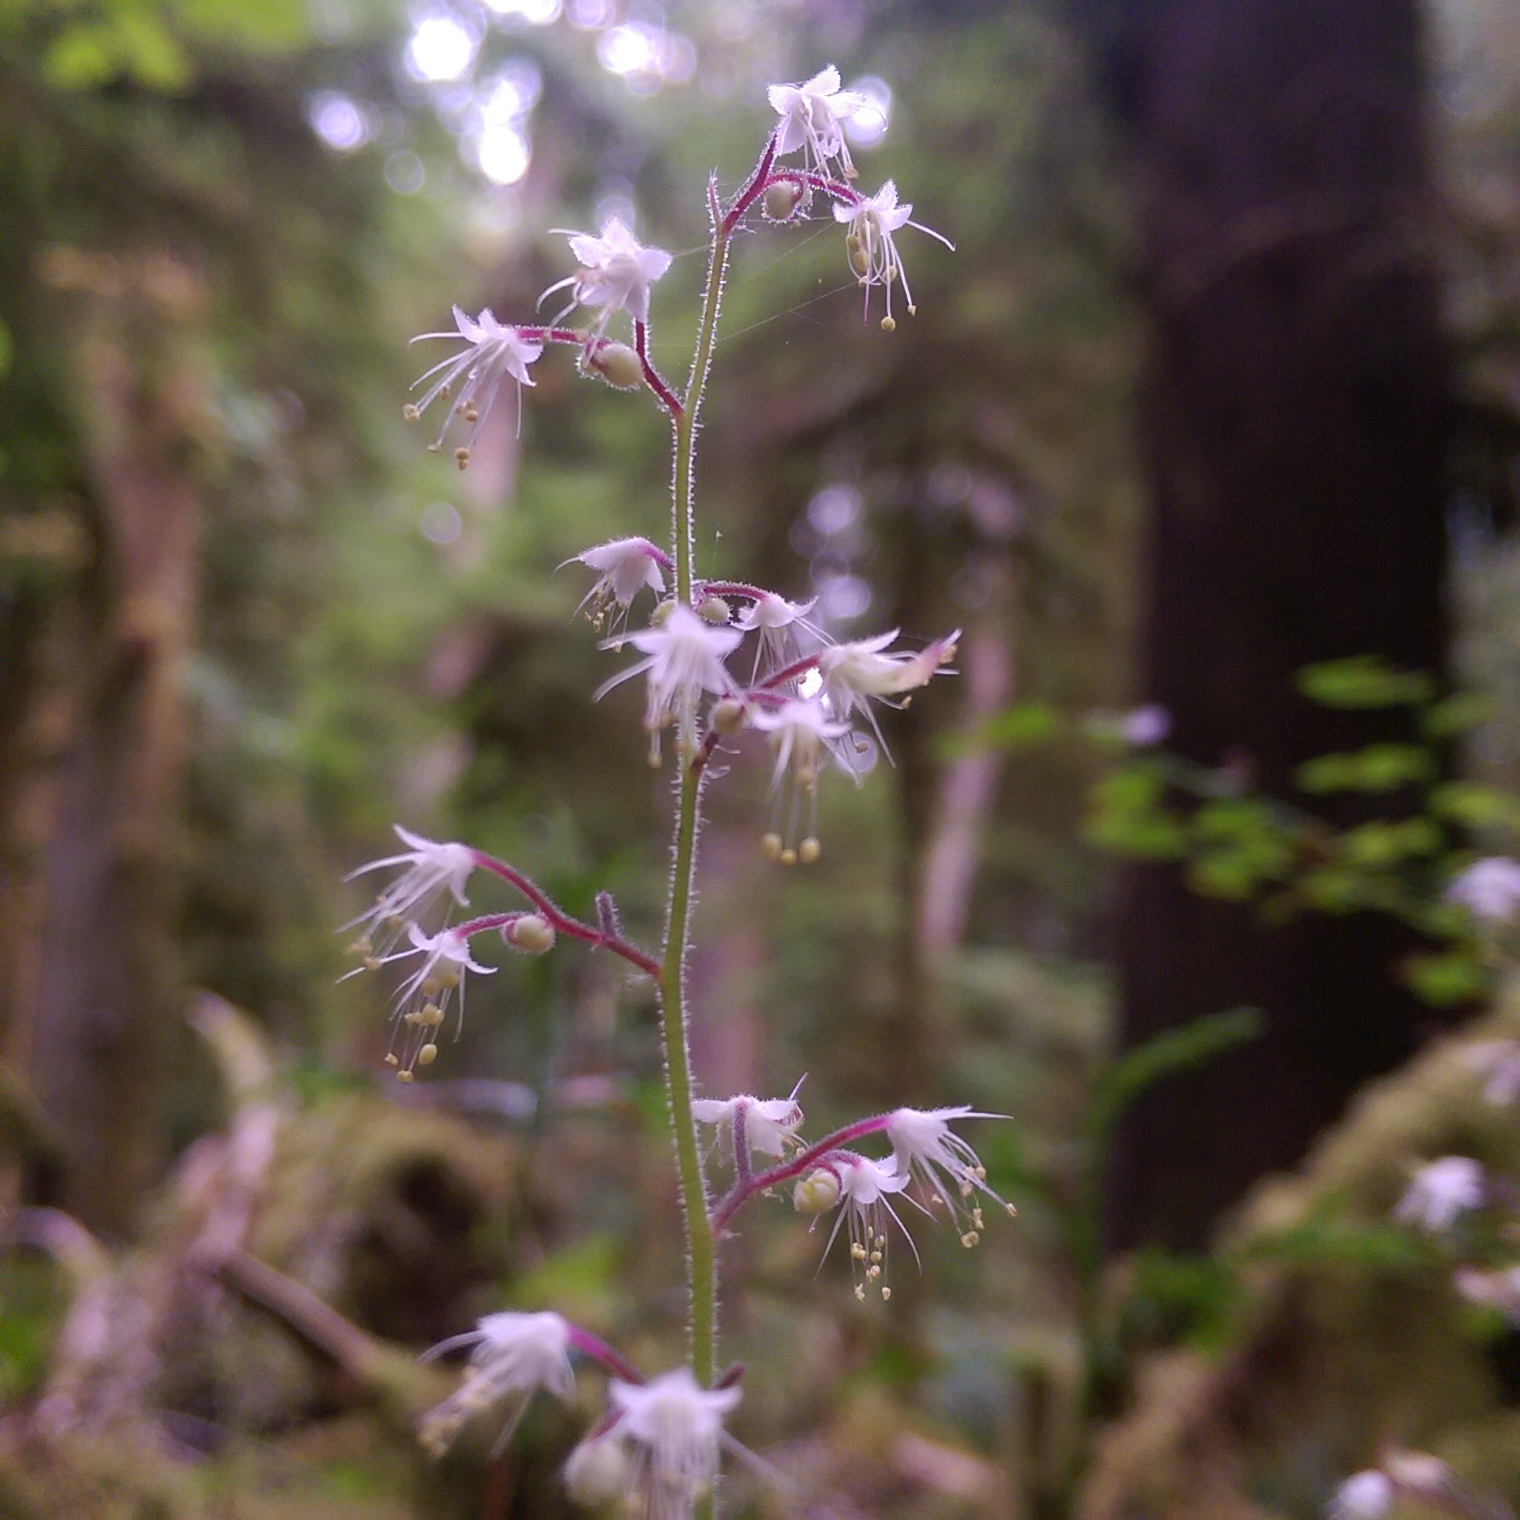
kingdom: Plantae
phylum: Tracheophyta
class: Magnoliopsida
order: Saxifragales
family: Saxifragaceae
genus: Tiarella
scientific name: Tiarella trifoliata
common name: Sugar-scoop
